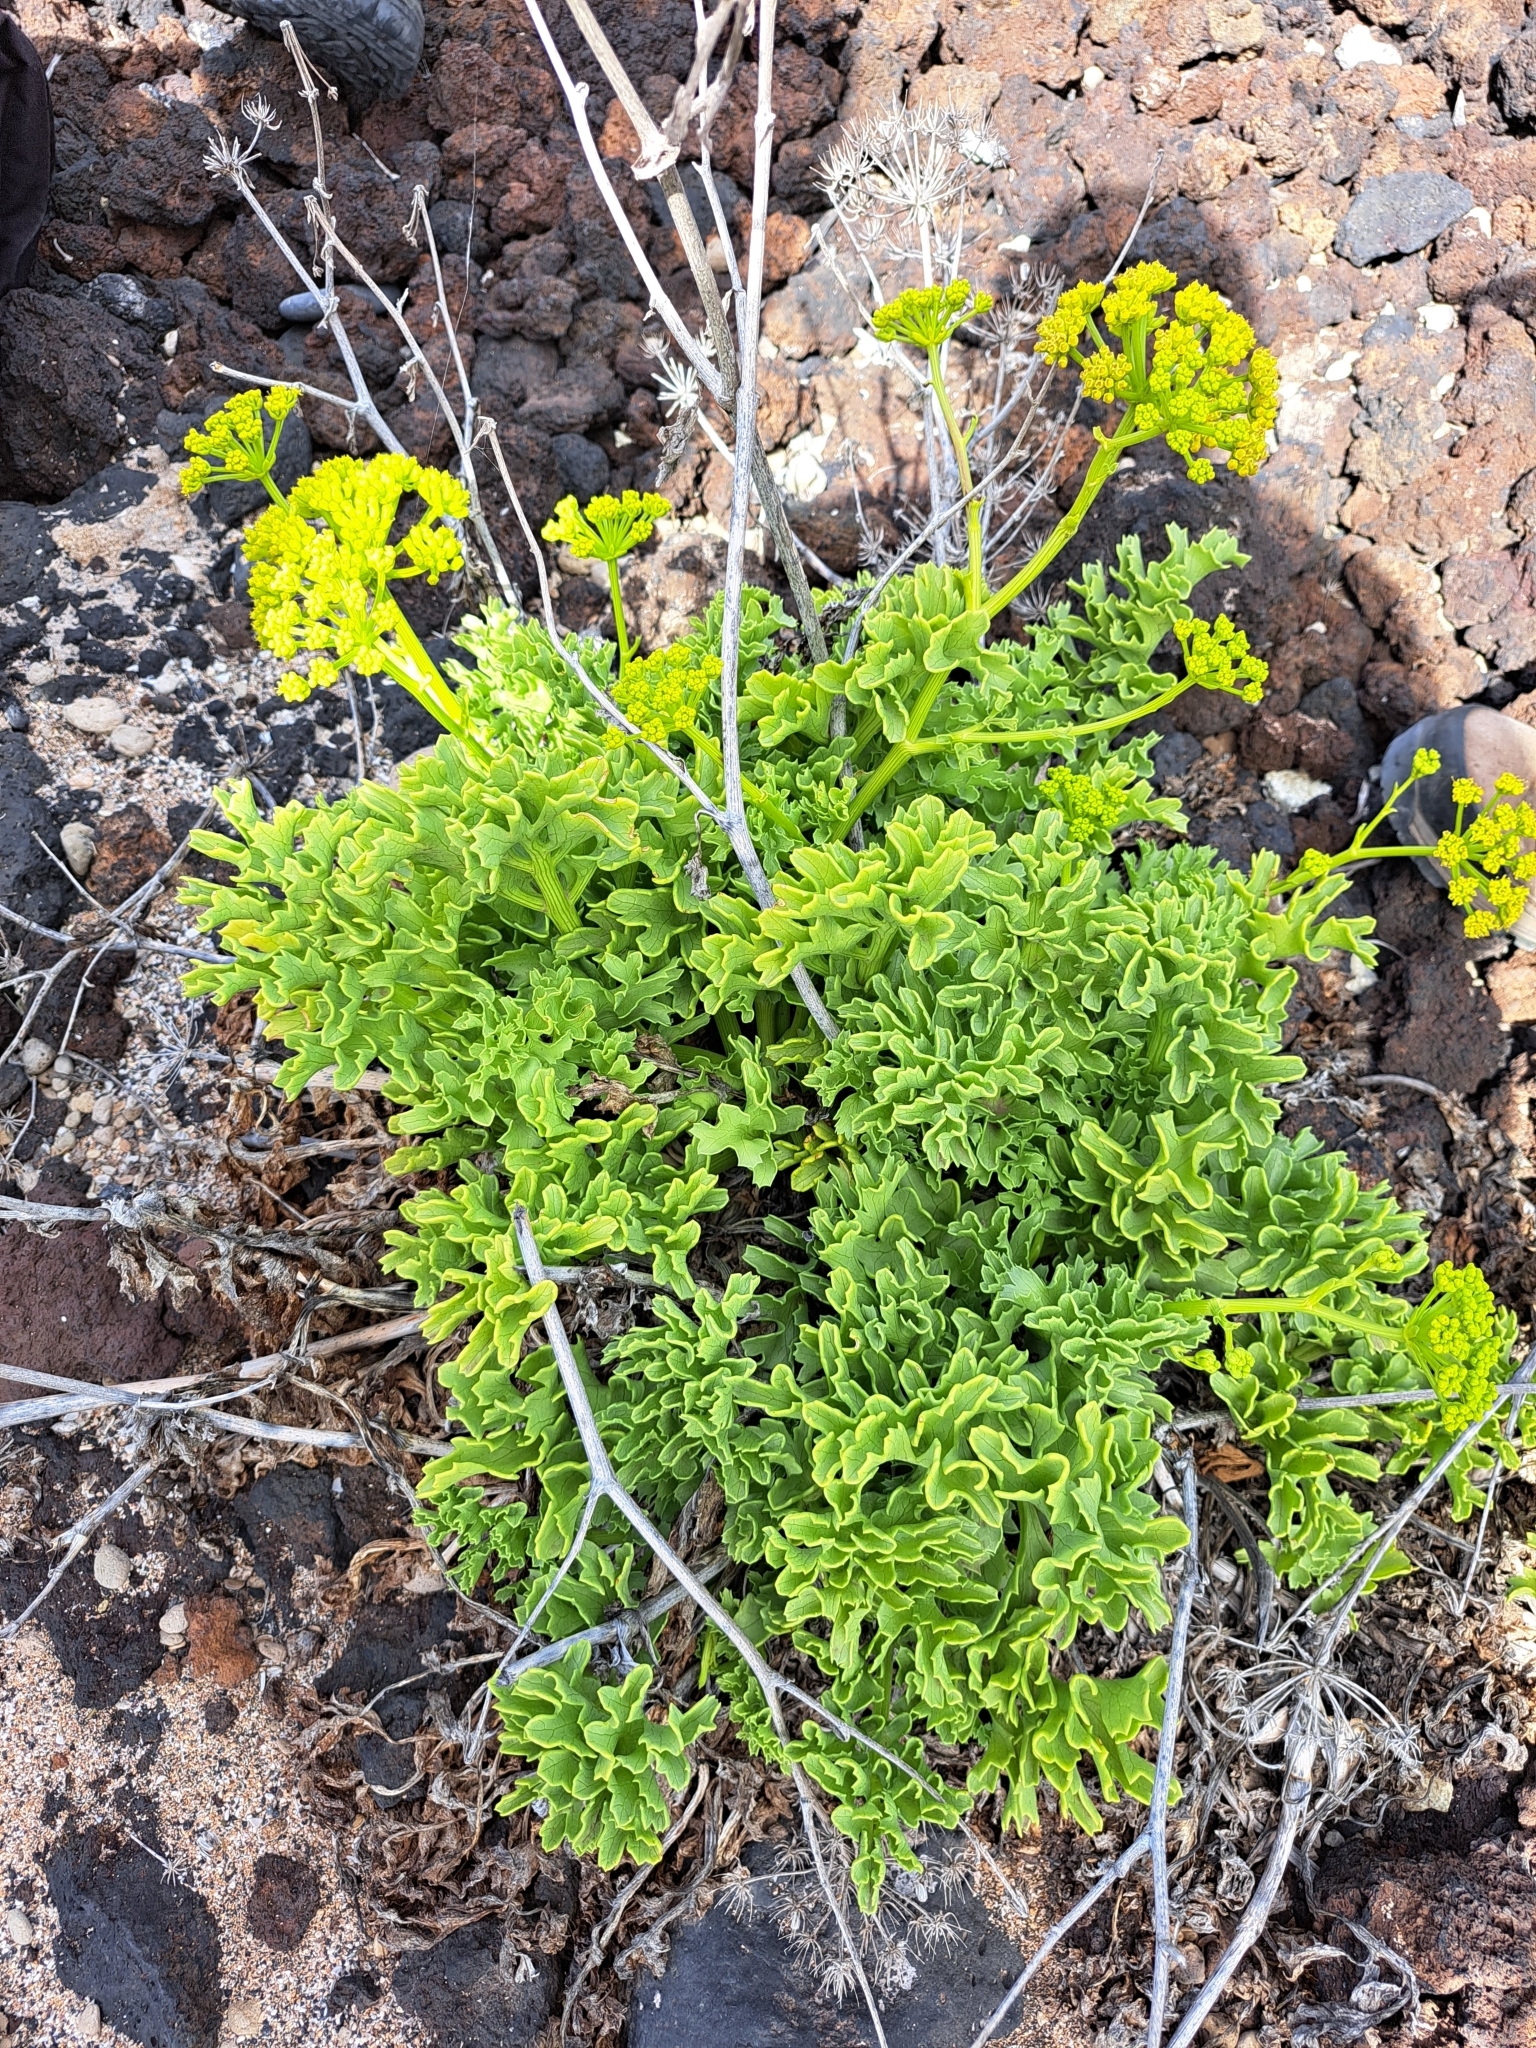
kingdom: Plantae
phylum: Tracheophyta
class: Magnoliopsida
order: Apiales
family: Apiaceae
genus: Astydamia
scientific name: Astydamia latifolia
